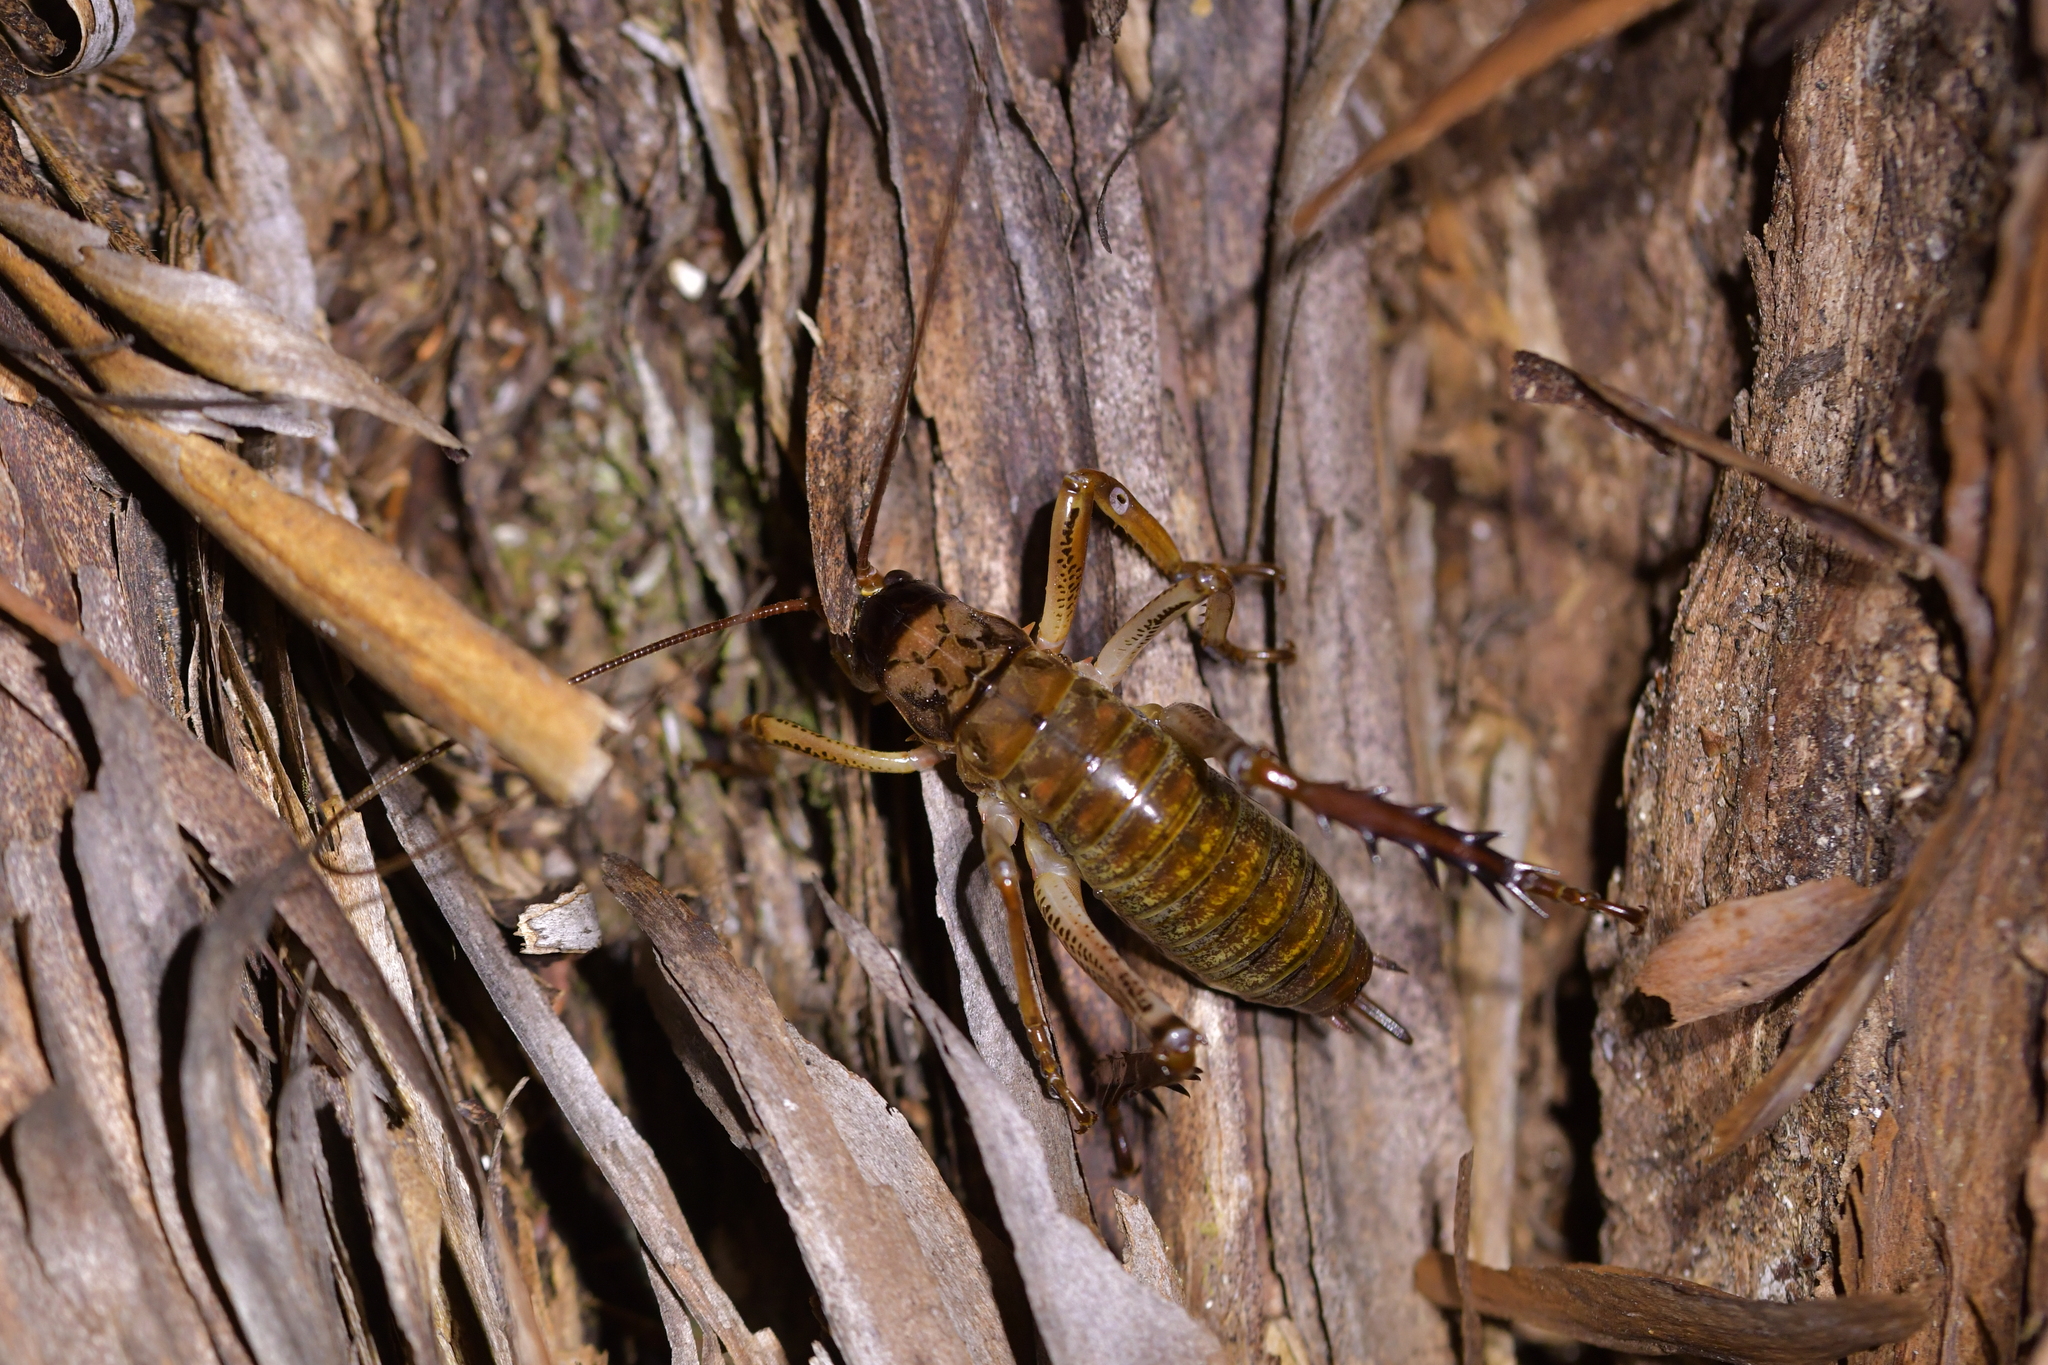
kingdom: Animalia
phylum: Arthropoda
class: Insecta
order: Orthoptera
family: Anostostomatidae
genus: Hemideina
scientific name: Hemideina thoracica
